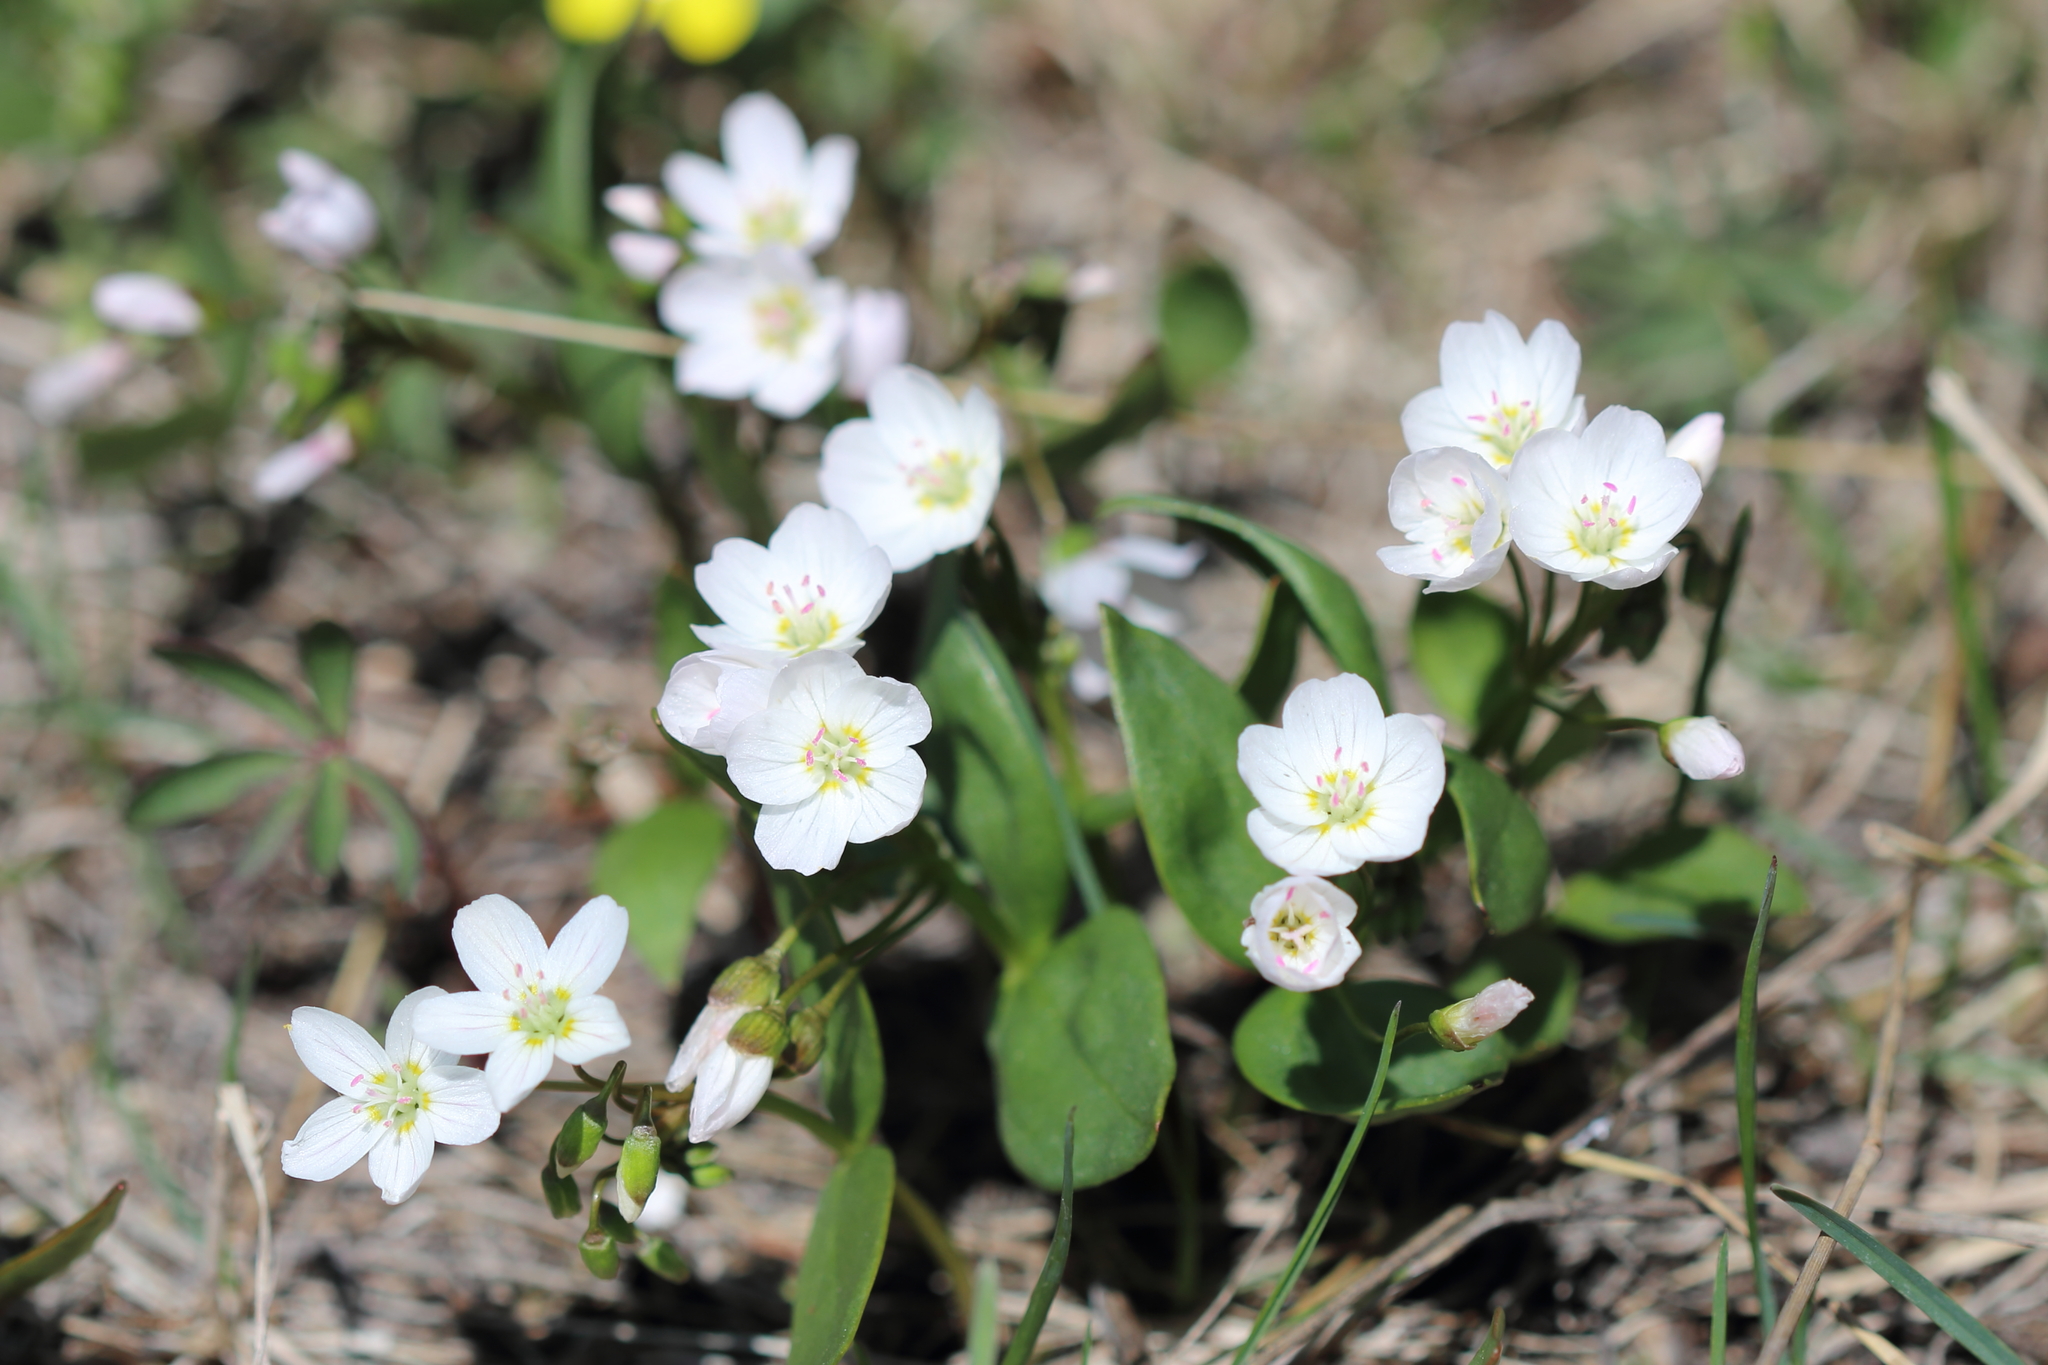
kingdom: Plantae
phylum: Tracheophyta
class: Magnoliopsida
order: Caryophyllales
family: Montiaceae
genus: Claytonia
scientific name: Claytonia lanceolata
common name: Western spring-beauty
